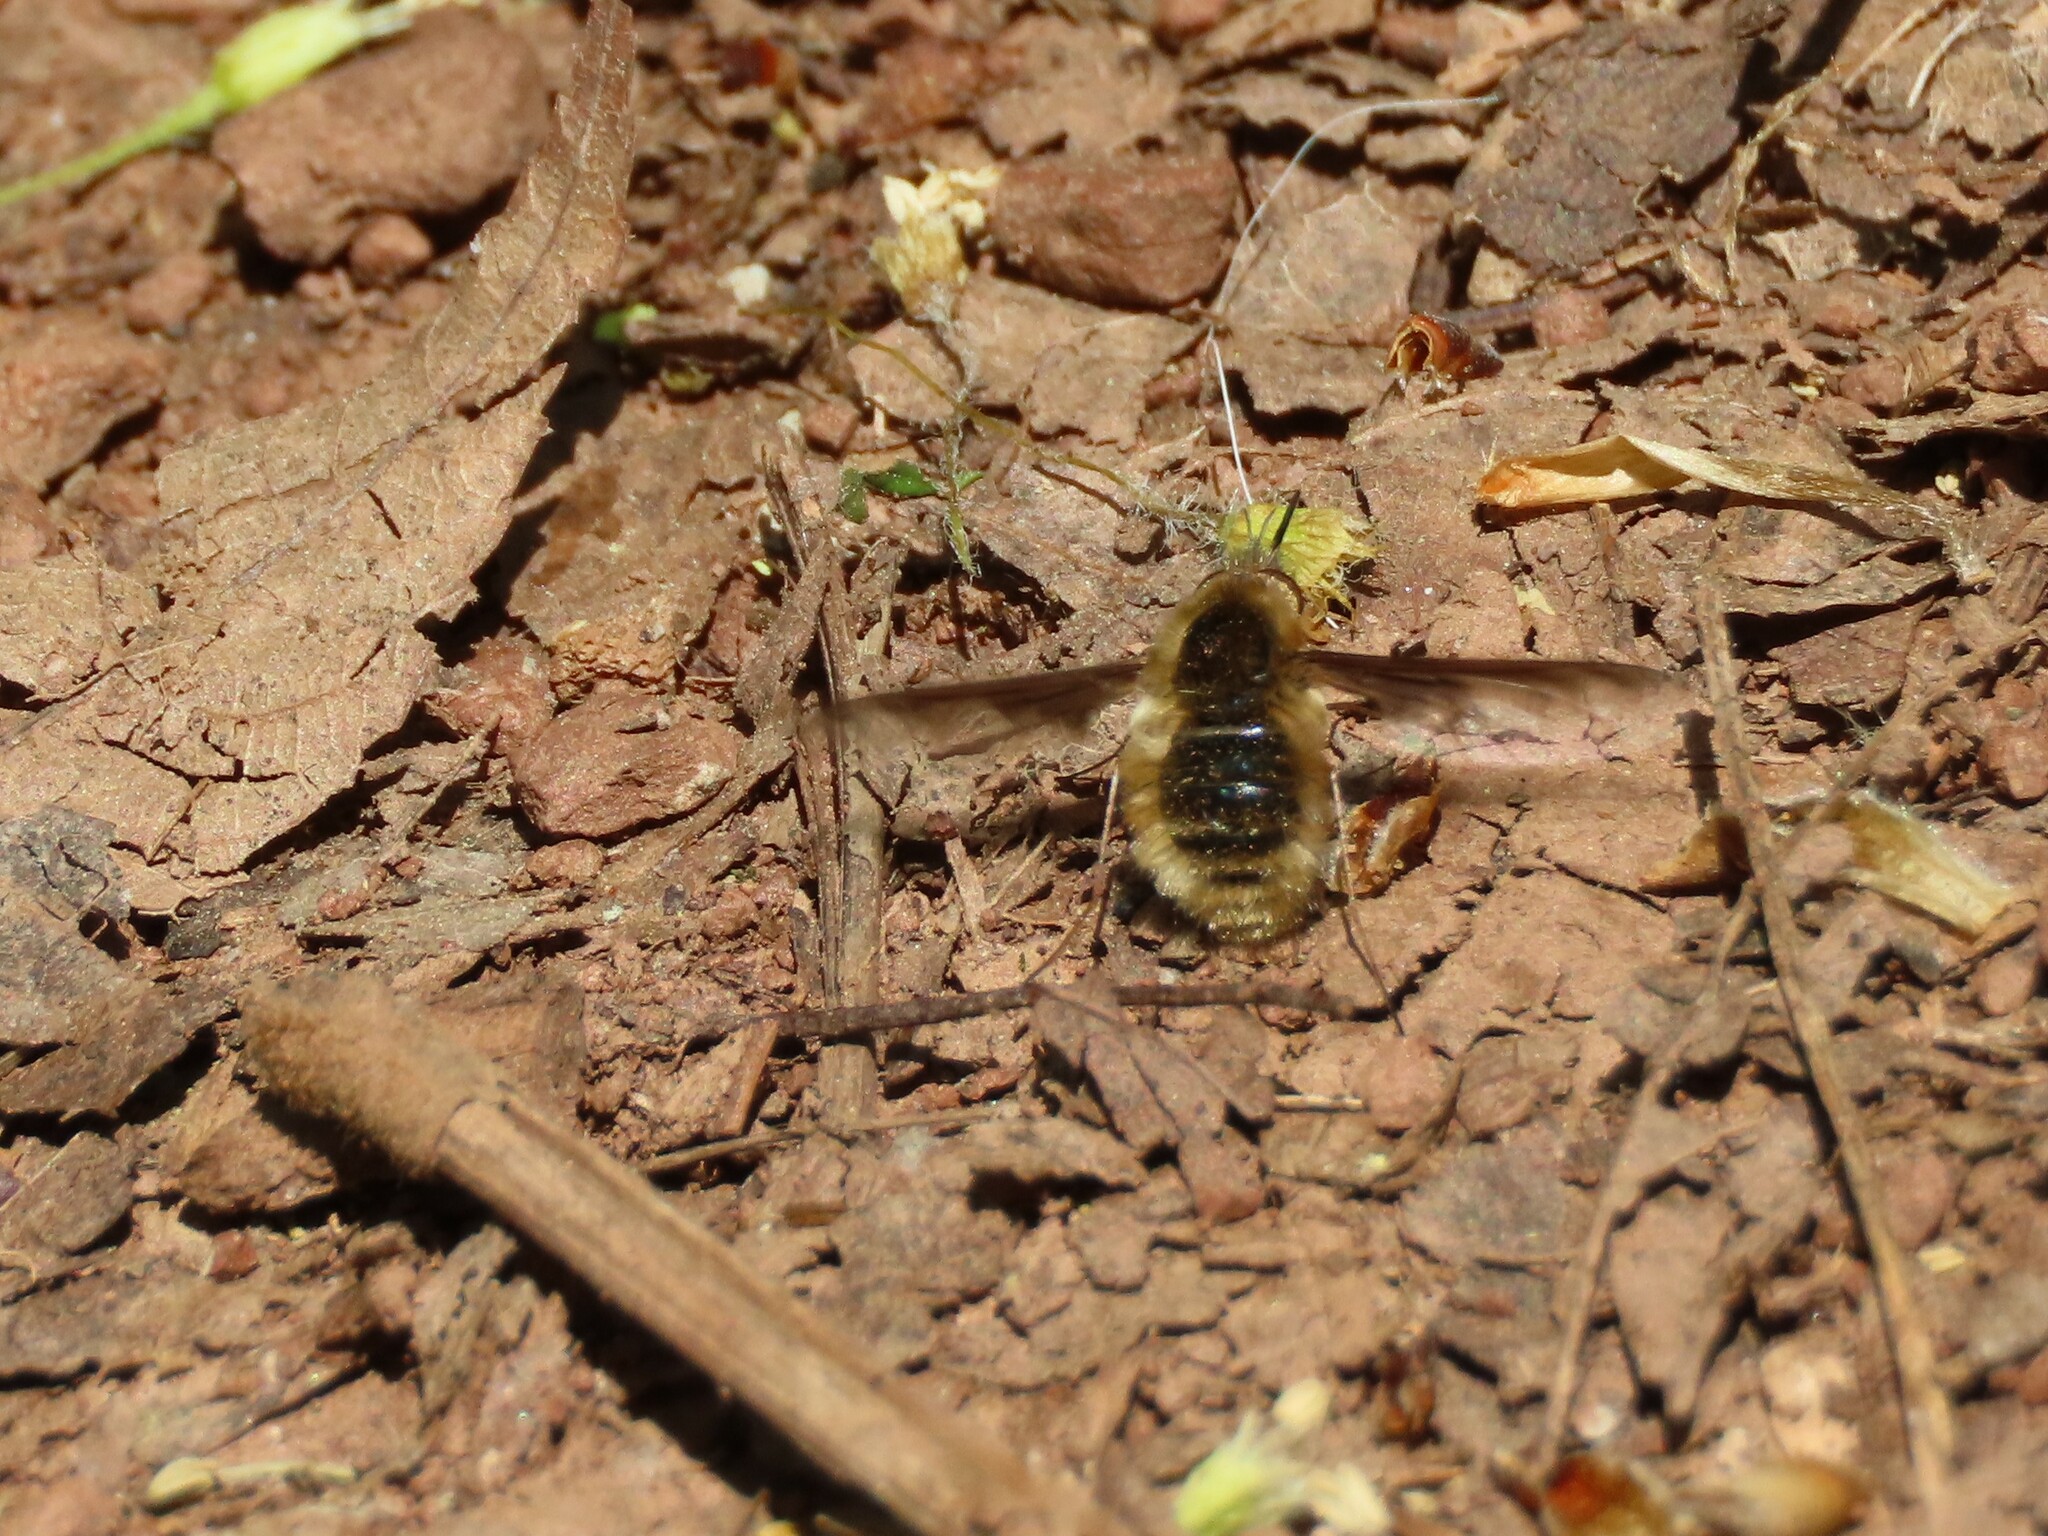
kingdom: Animalia
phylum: Arthropoda
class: Insecta
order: Diptera
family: Bombyliidae
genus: Bombylius
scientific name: Bombylius major
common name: Bee fly
